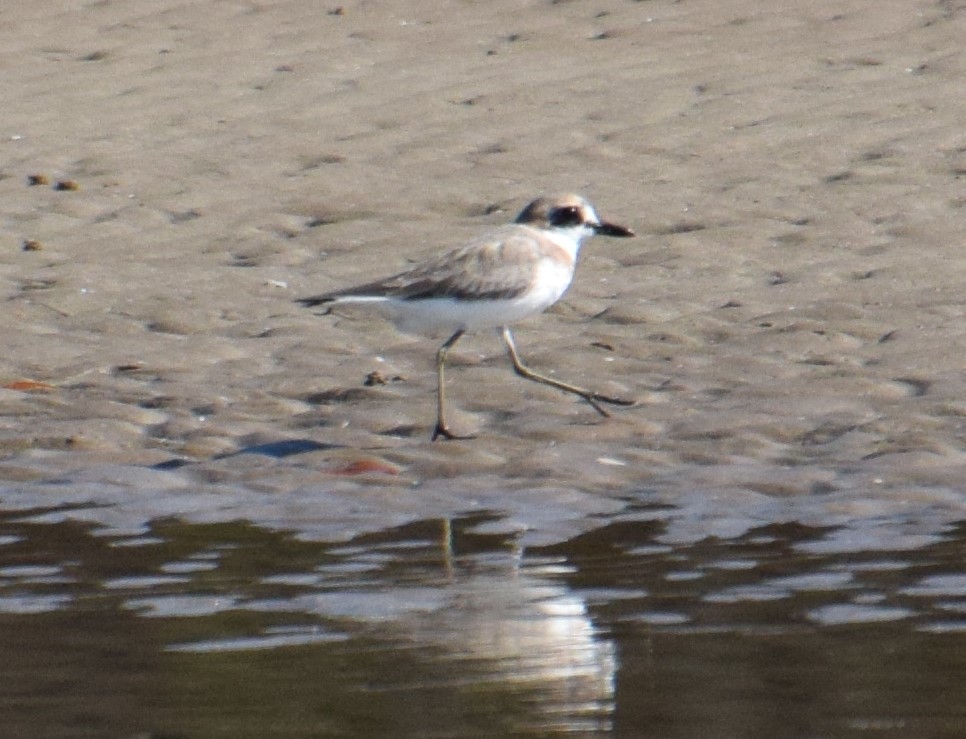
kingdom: Animalia
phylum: Chordata
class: Aves
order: Charadriiformes
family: Charadriidae
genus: Charadrius
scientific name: Charadrius leschenaultii
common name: Greater sand plover
